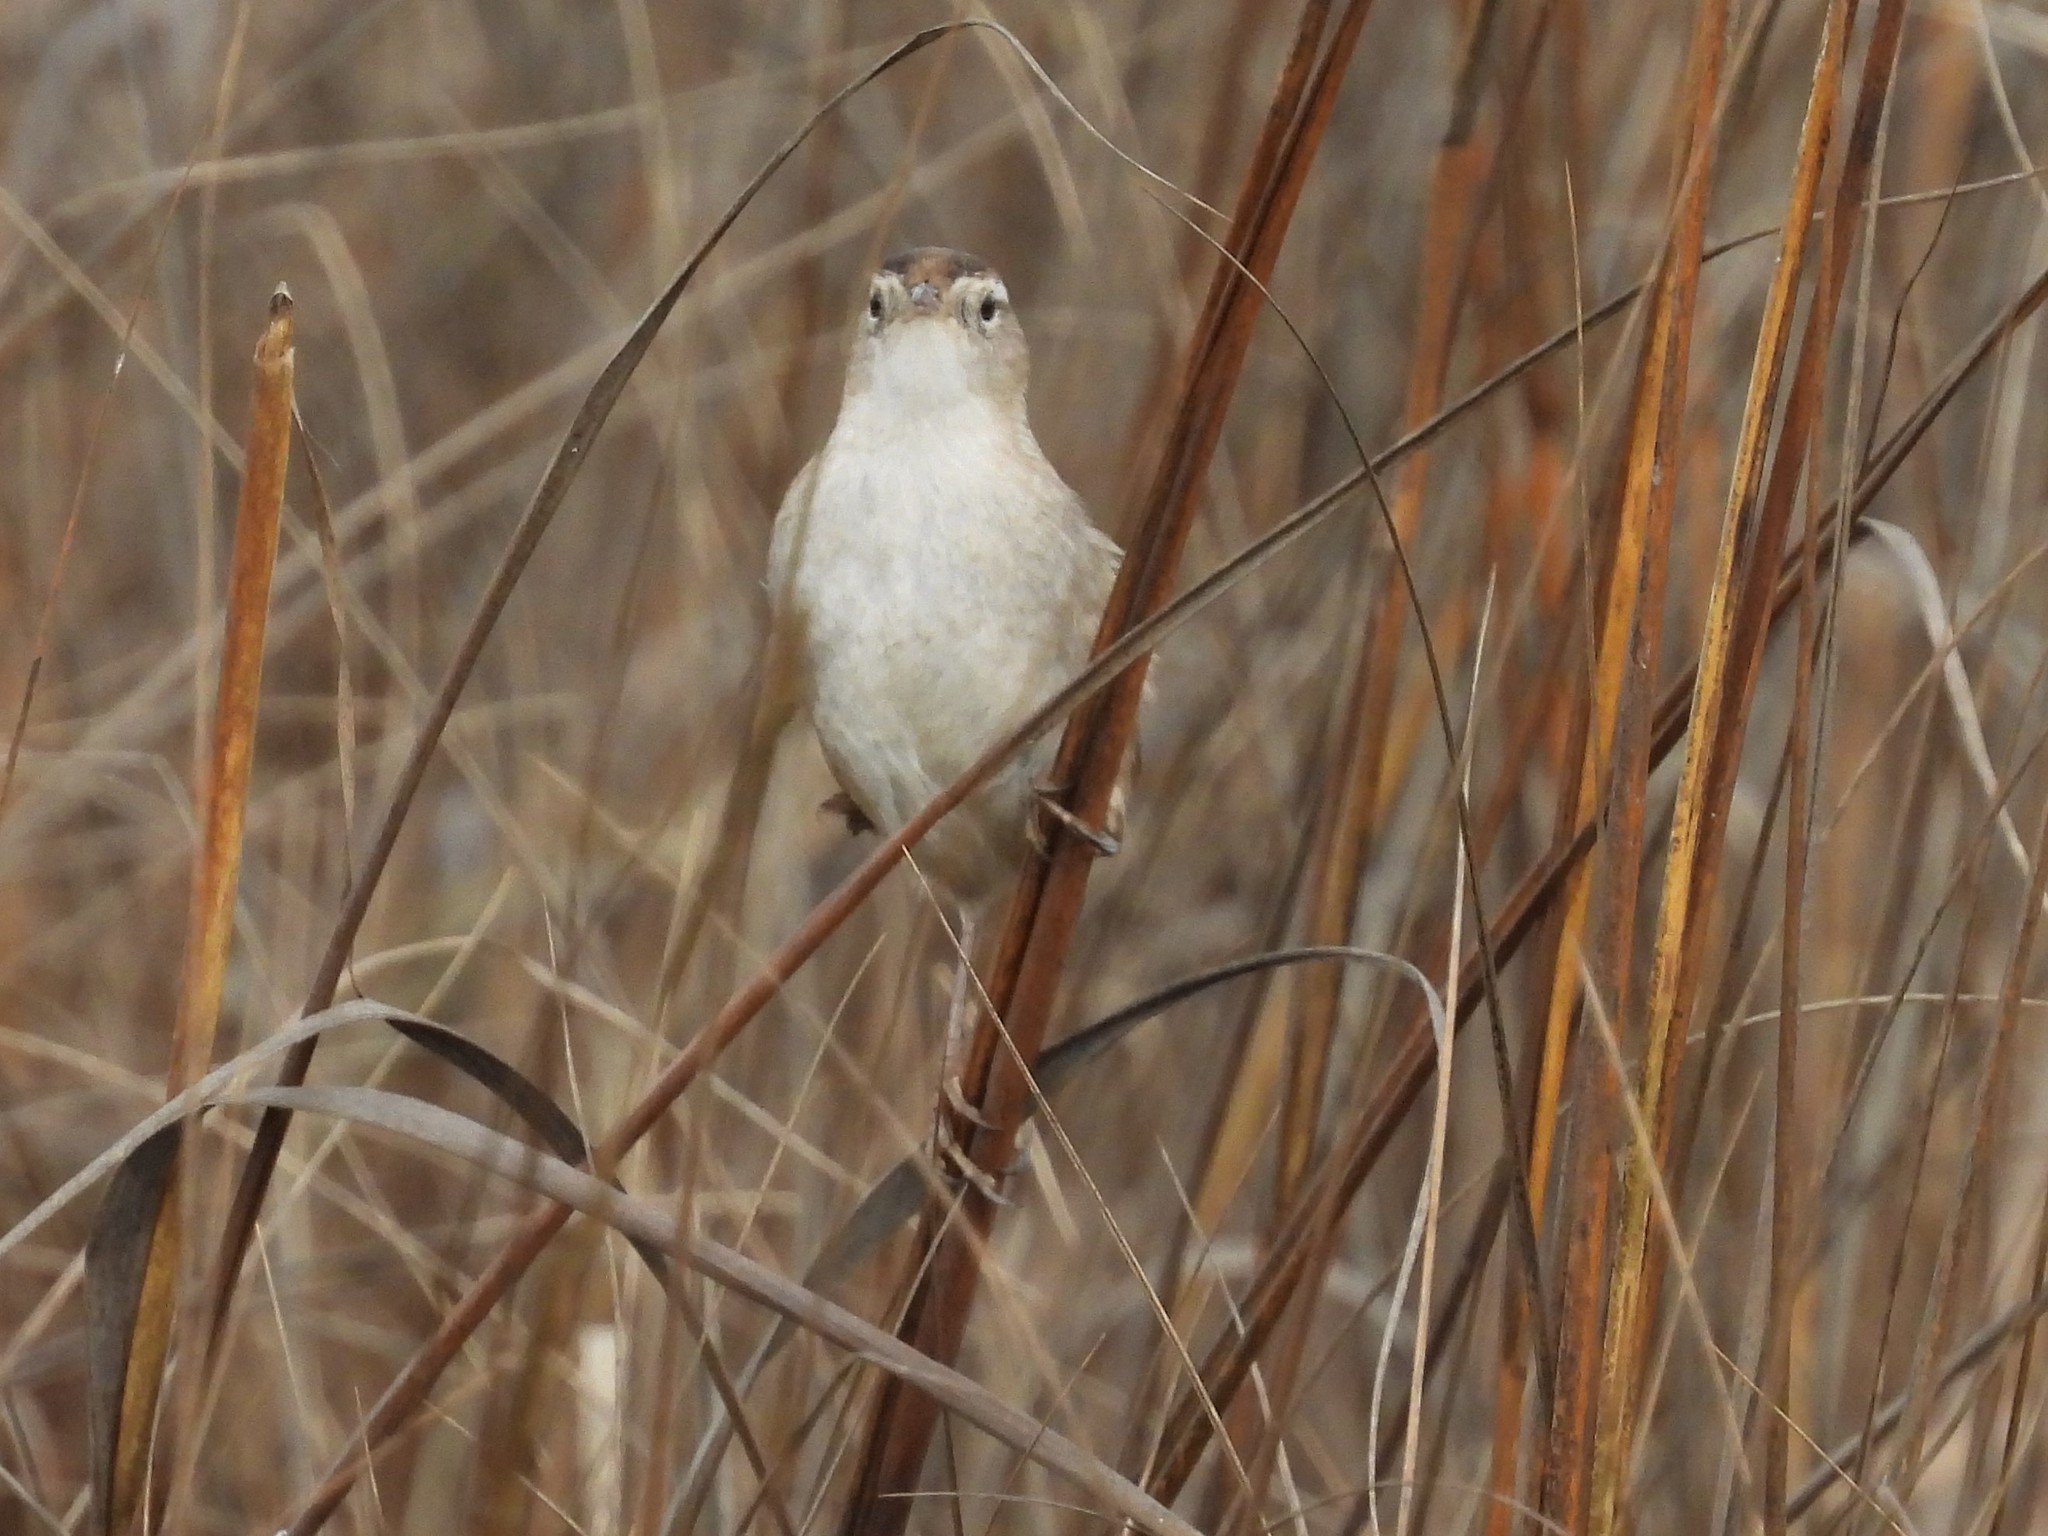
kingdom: Animalia
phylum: Chordata
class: Aves
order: Passeriformes
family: Troglodytidae
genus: Cistothorus
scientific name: Cistothorus palustris
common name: Marsh wren
